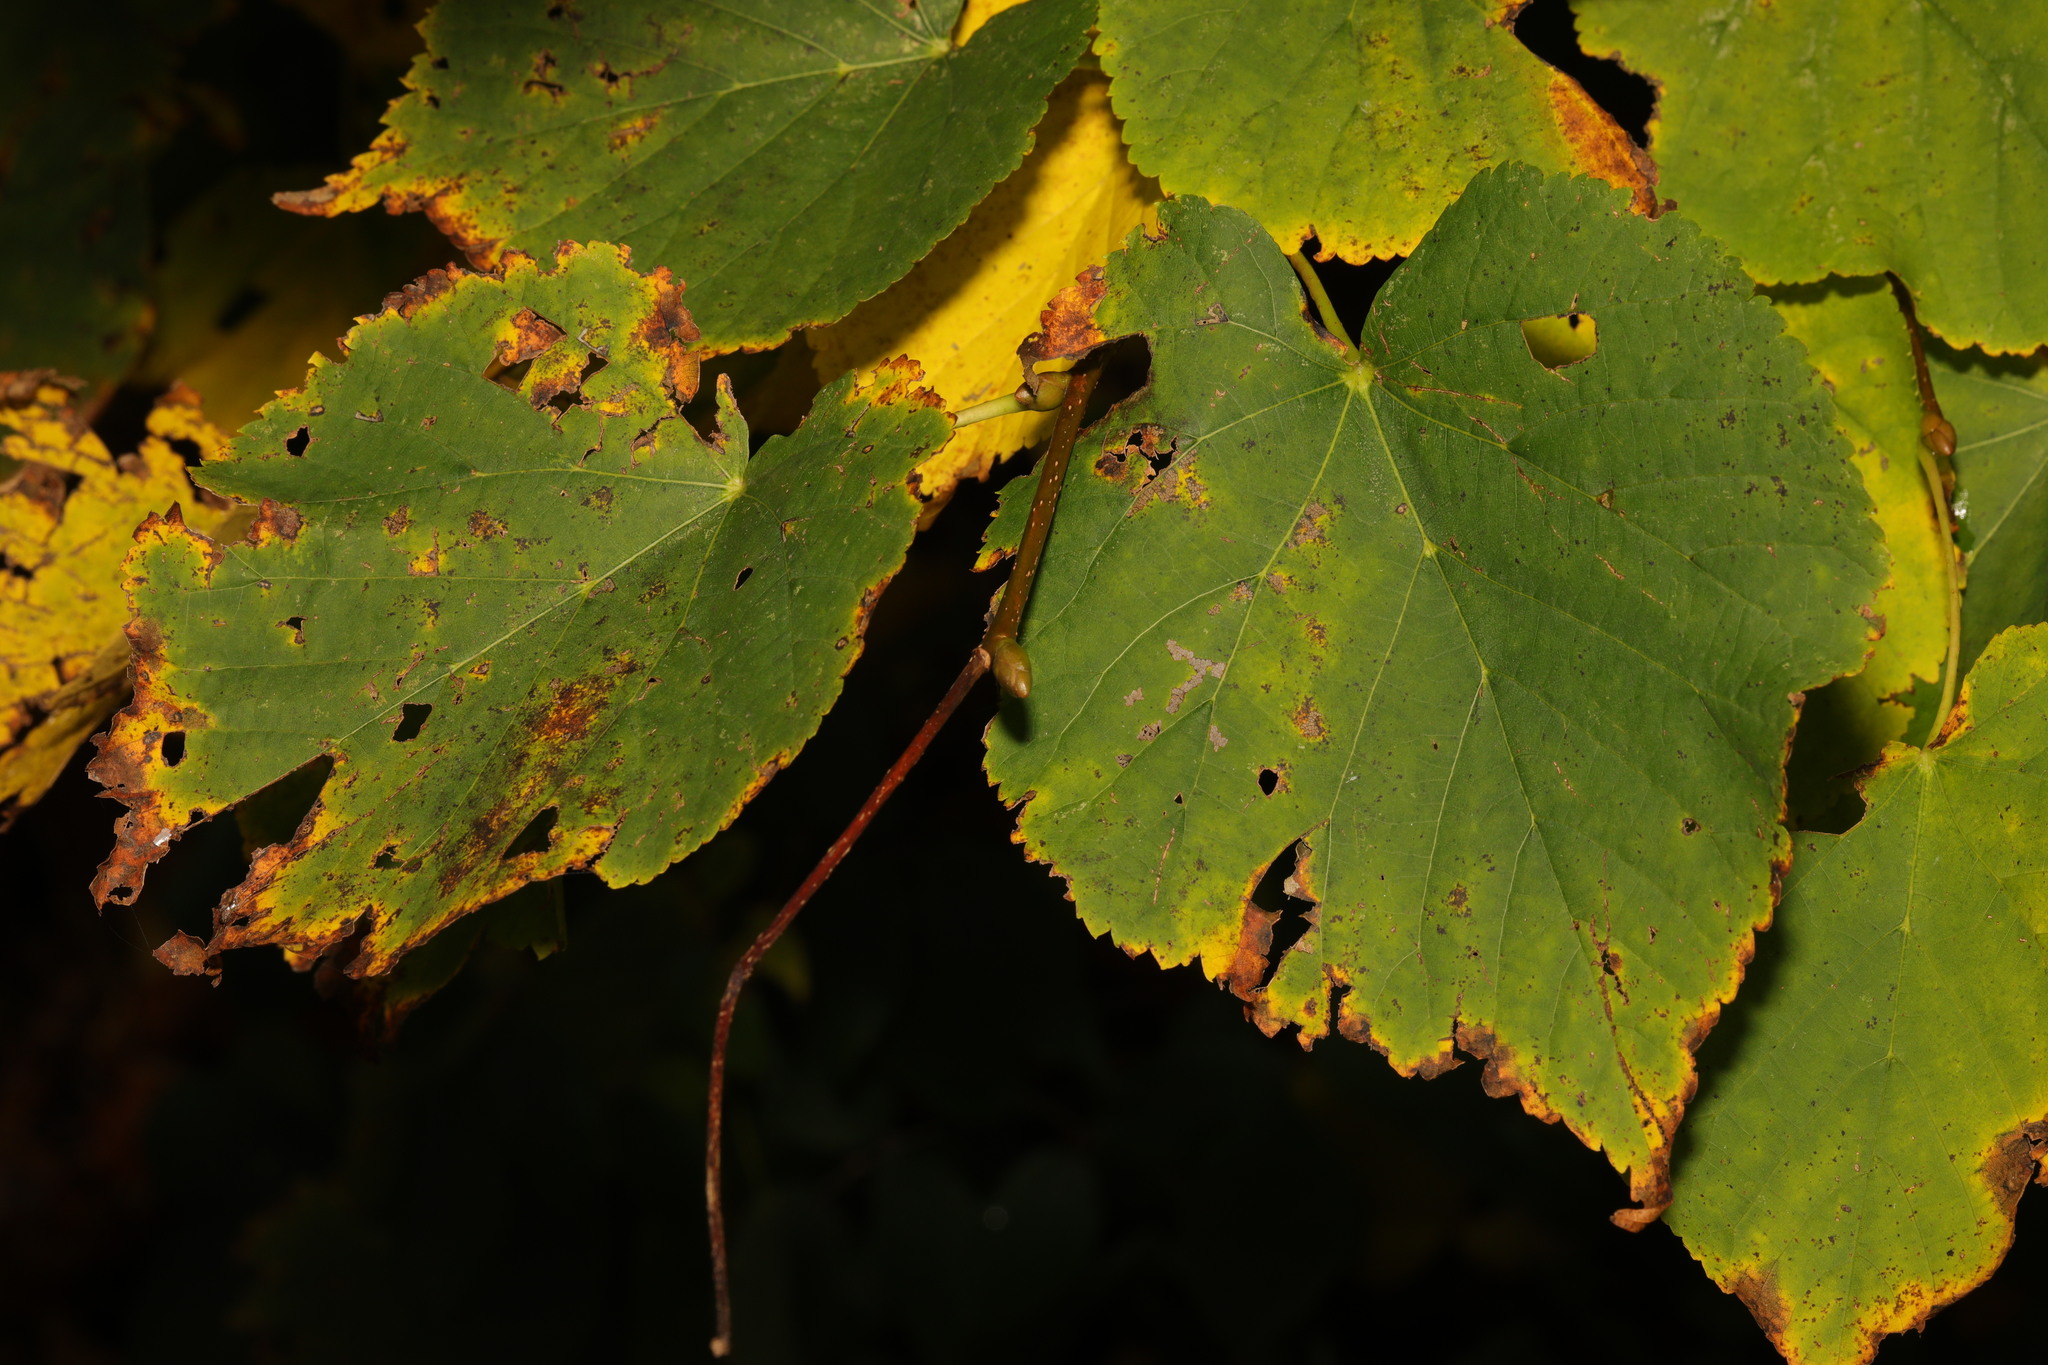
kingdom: Plantae
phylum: Tracheophyta
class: Magnoliopsida
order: Malvales
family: Malvaceae
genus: Tilia
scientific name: Tilia europaea
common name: European linden
